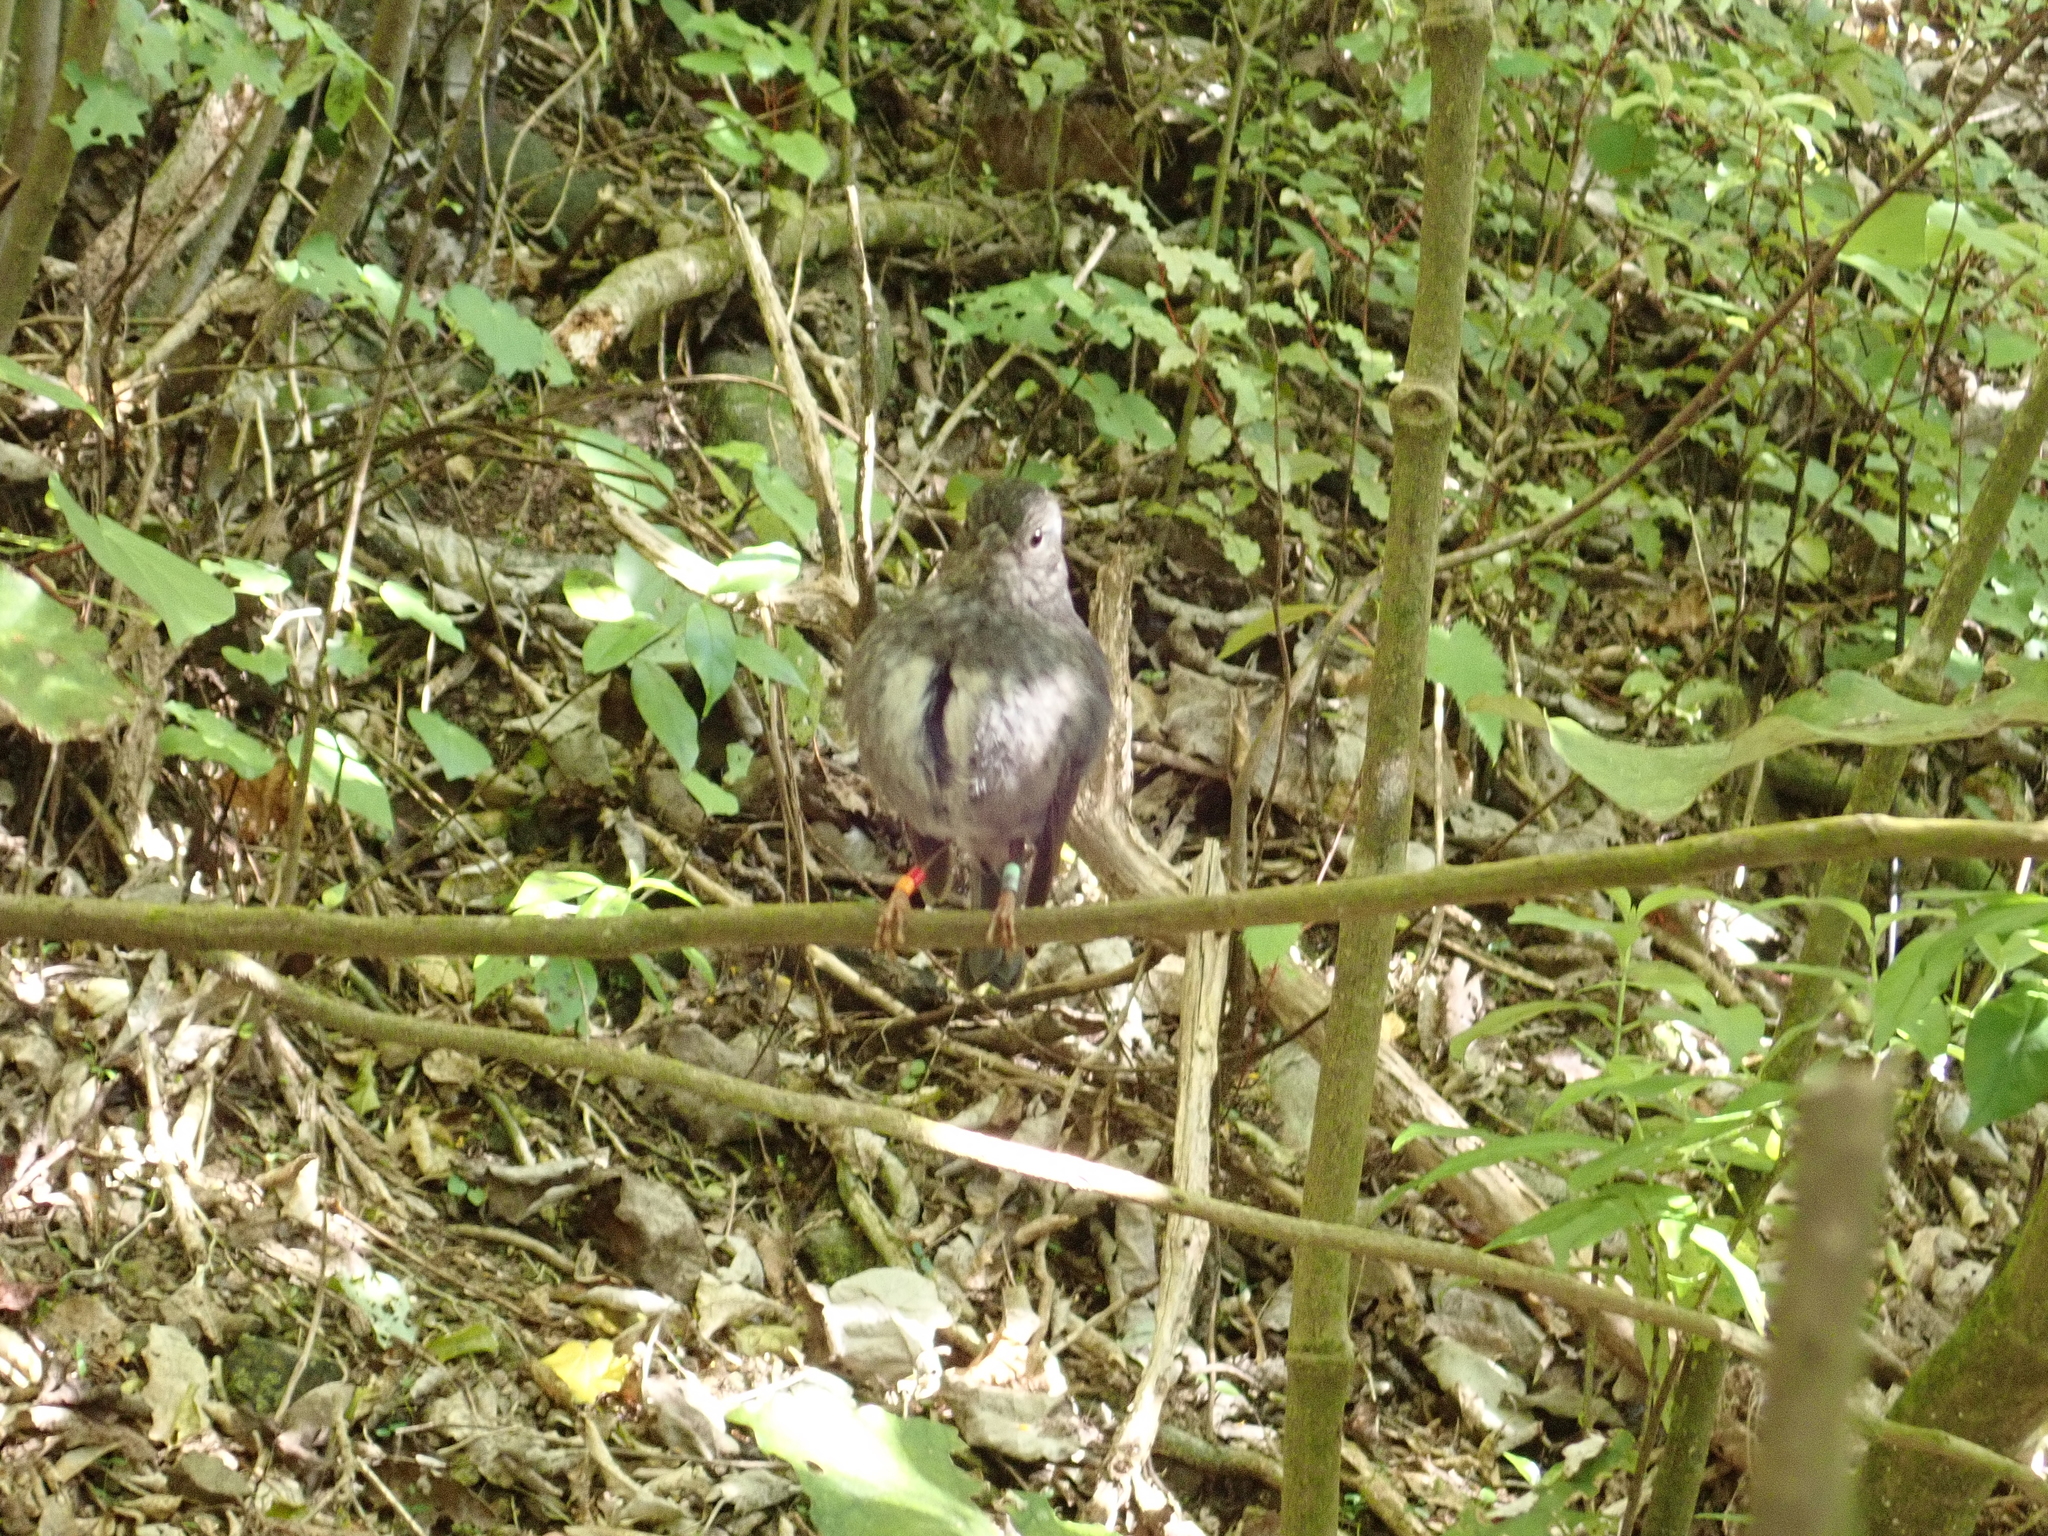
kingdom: Animalia
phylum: Chordata
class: Aves
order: Passeriformes
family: Petroicidae
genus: Petroica
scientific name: Petroica australis
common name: New zealand robin
